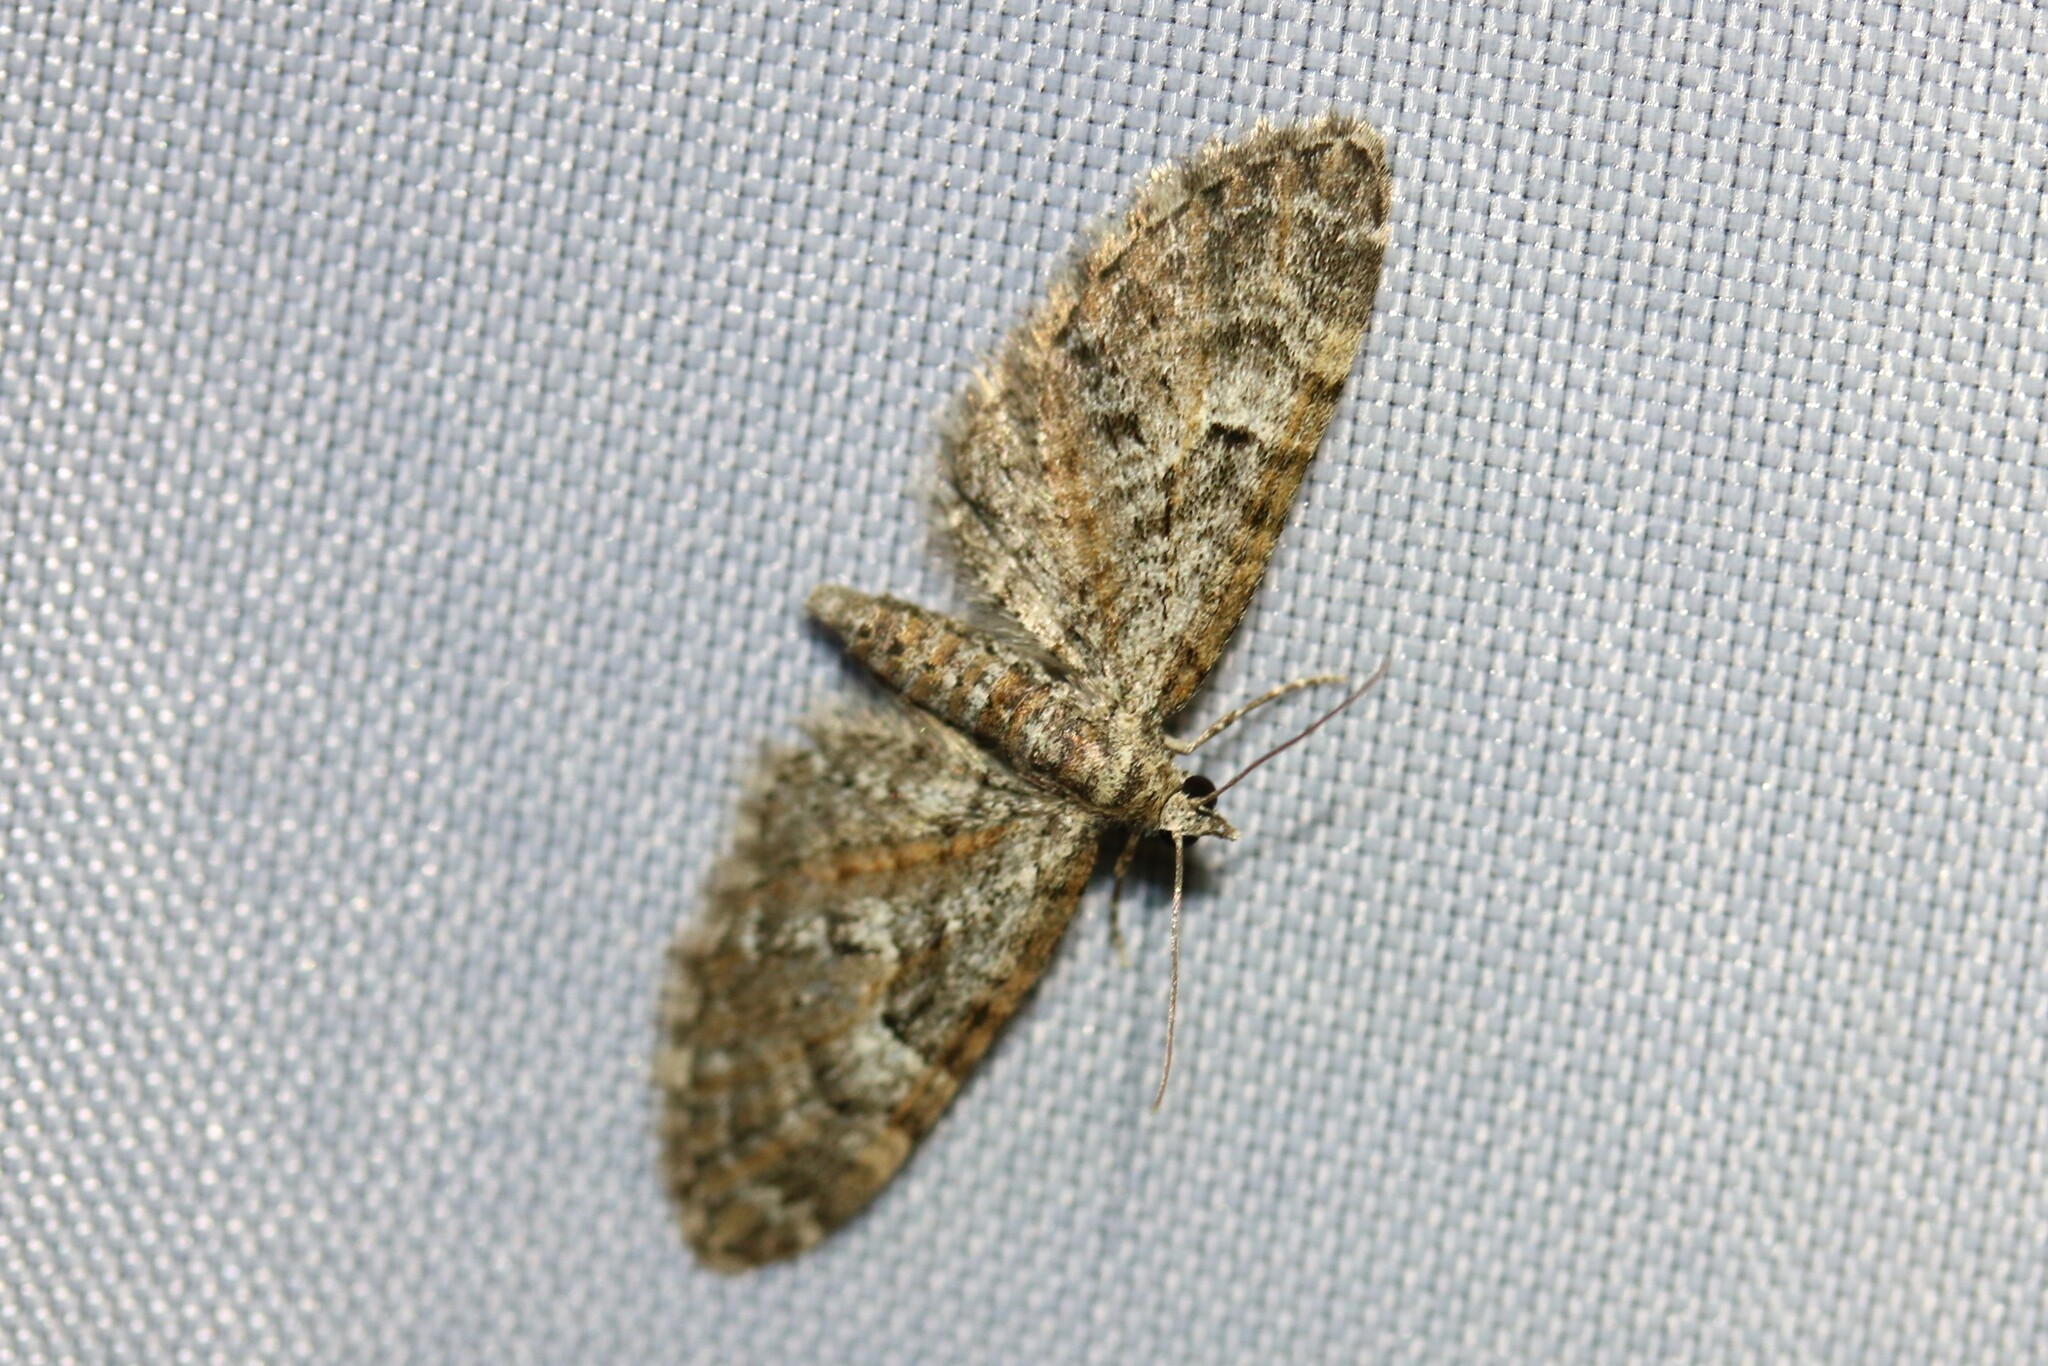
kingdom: Animalia
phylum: Arthropoda
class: Insecta
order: Lepidoptera
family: Geometridae
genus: Eupithecia
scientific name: Eupithecia dodoneata
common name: Oak-tree pug
